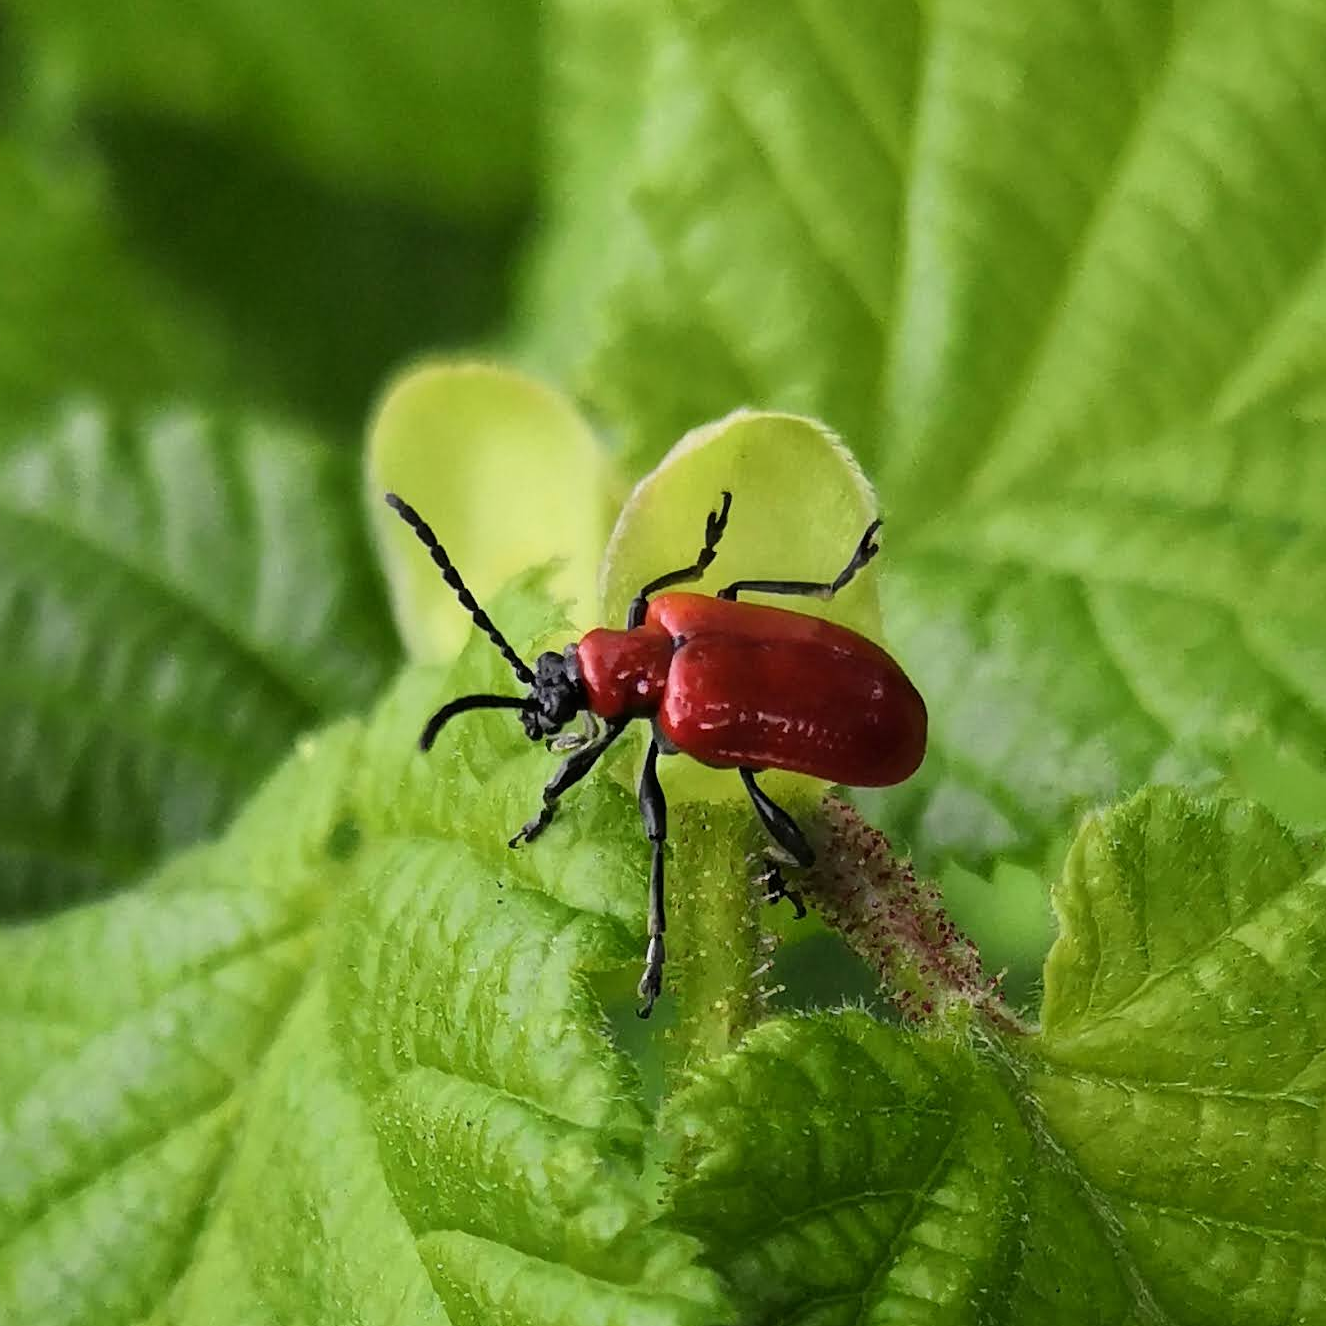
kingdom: Animalia
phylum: Arthropoda
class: Insecta
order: Coleoptera
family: Chrysomelidae
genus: Lilioceris
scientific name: Lilioceris lilii
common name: Lily beetle
